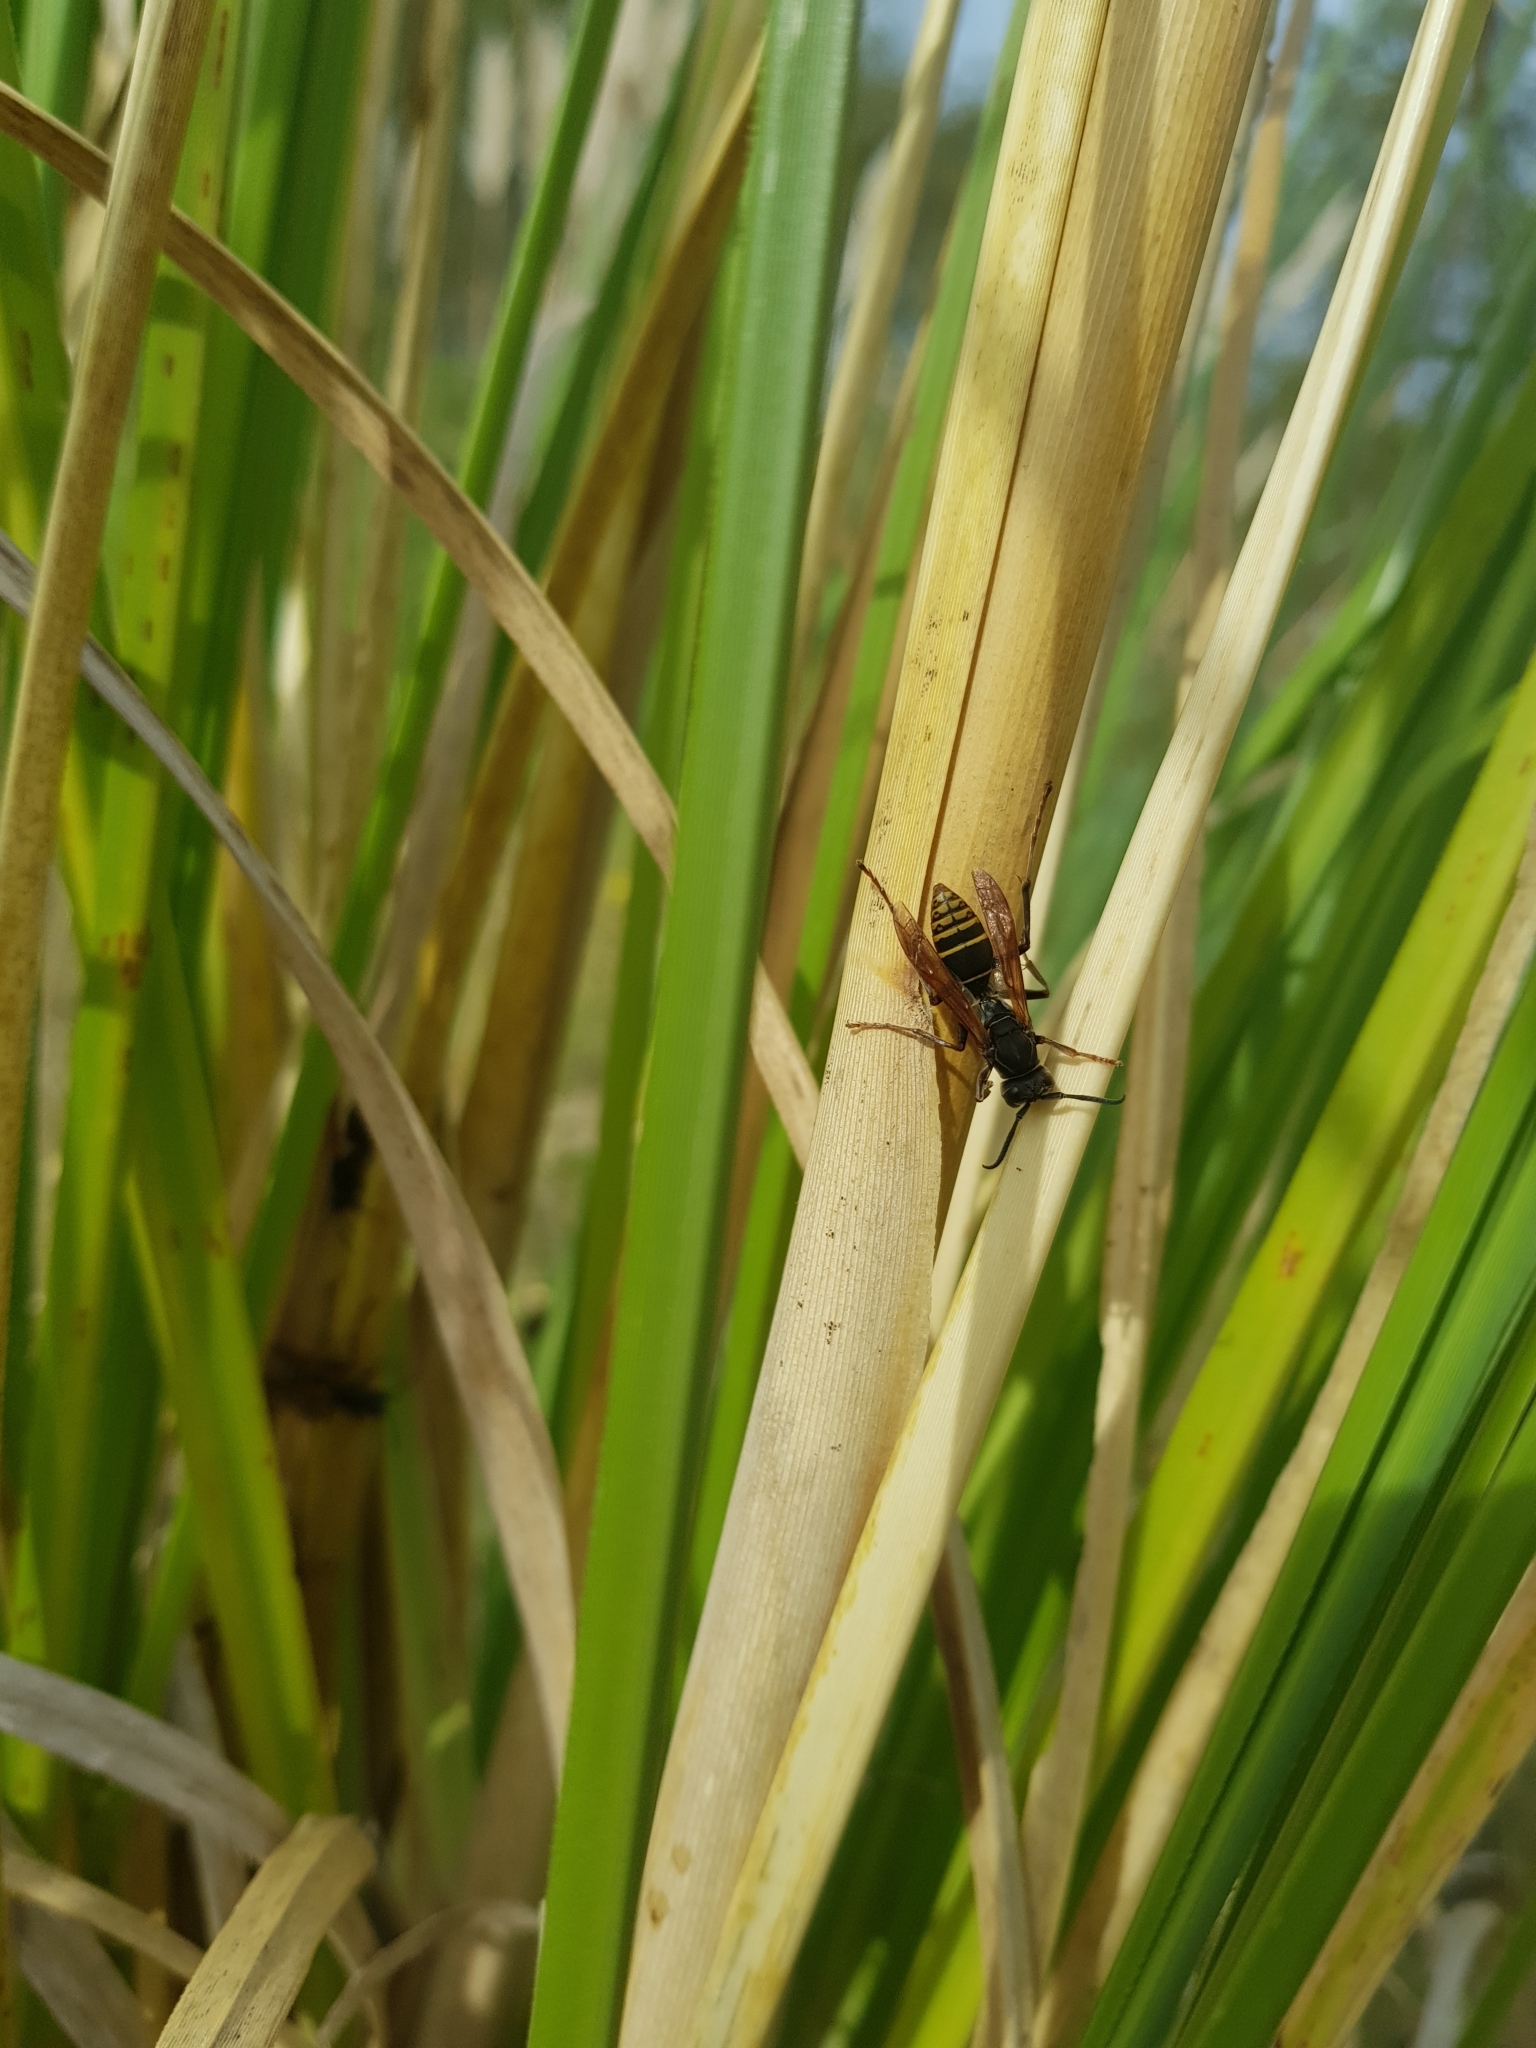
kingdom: Animalia
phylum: Arthropoda
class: Insecta
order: Hymenoptera
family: Eumenidae
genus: Polistes
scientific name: Polistes cinerascens
